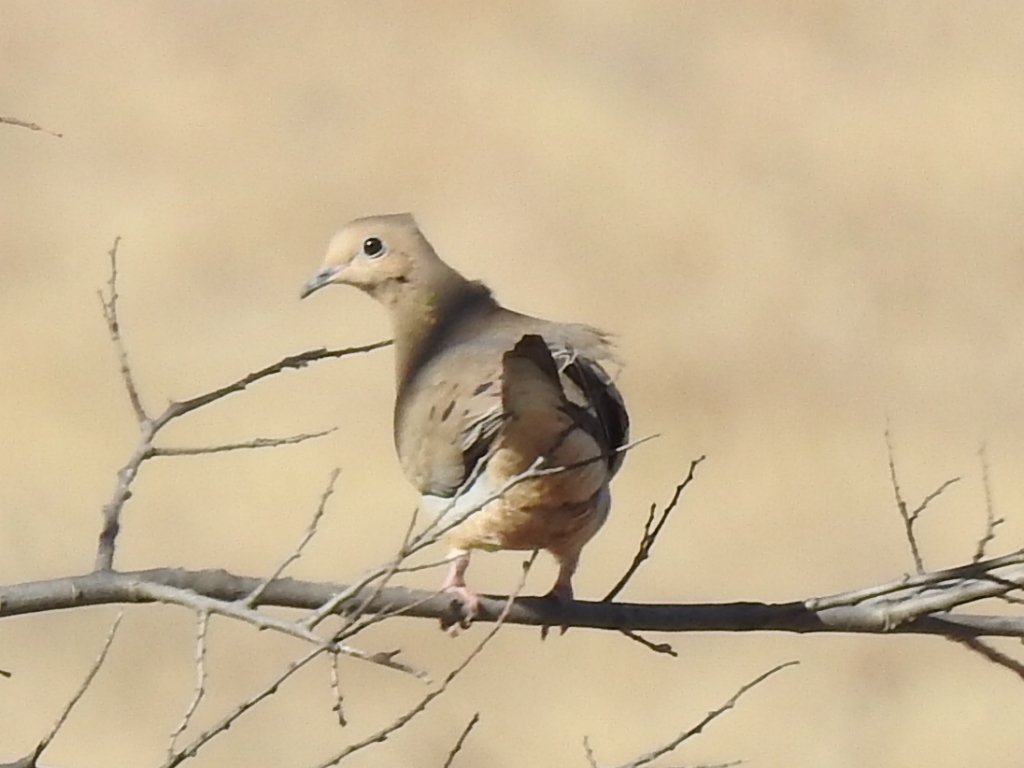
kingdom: Animalia
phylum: Chordata
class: Aves
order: Columbiformes
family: Columbidae
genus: Zenaida
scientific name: Zenaida macroura
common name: Mourning dove
